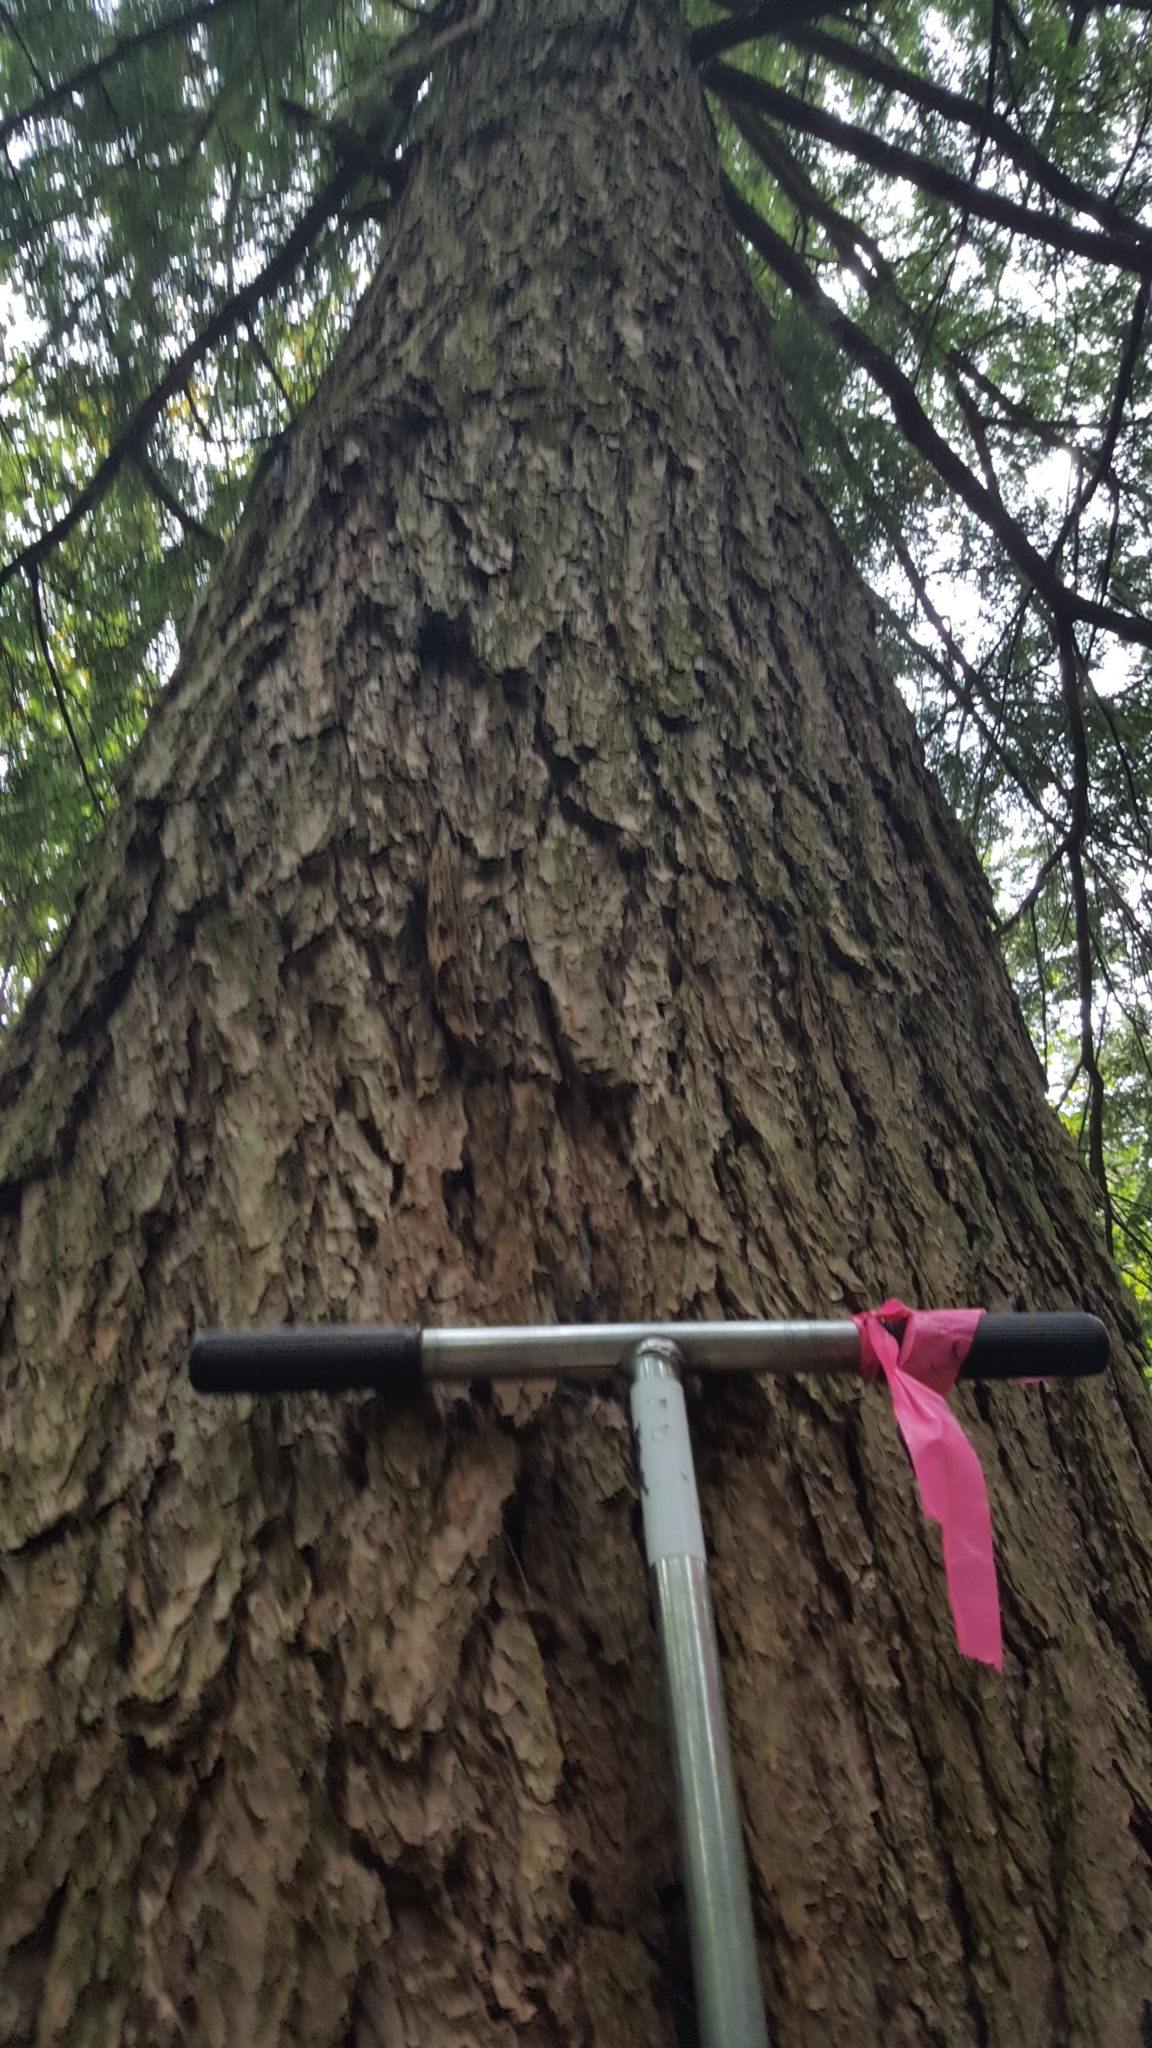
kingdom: Plantae
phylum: Tracheophyta
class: Pinopsida
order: Pinales
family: Pinaceae
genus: Tsuga
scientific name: Tsuga canadensis
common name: Eastern hemlock
